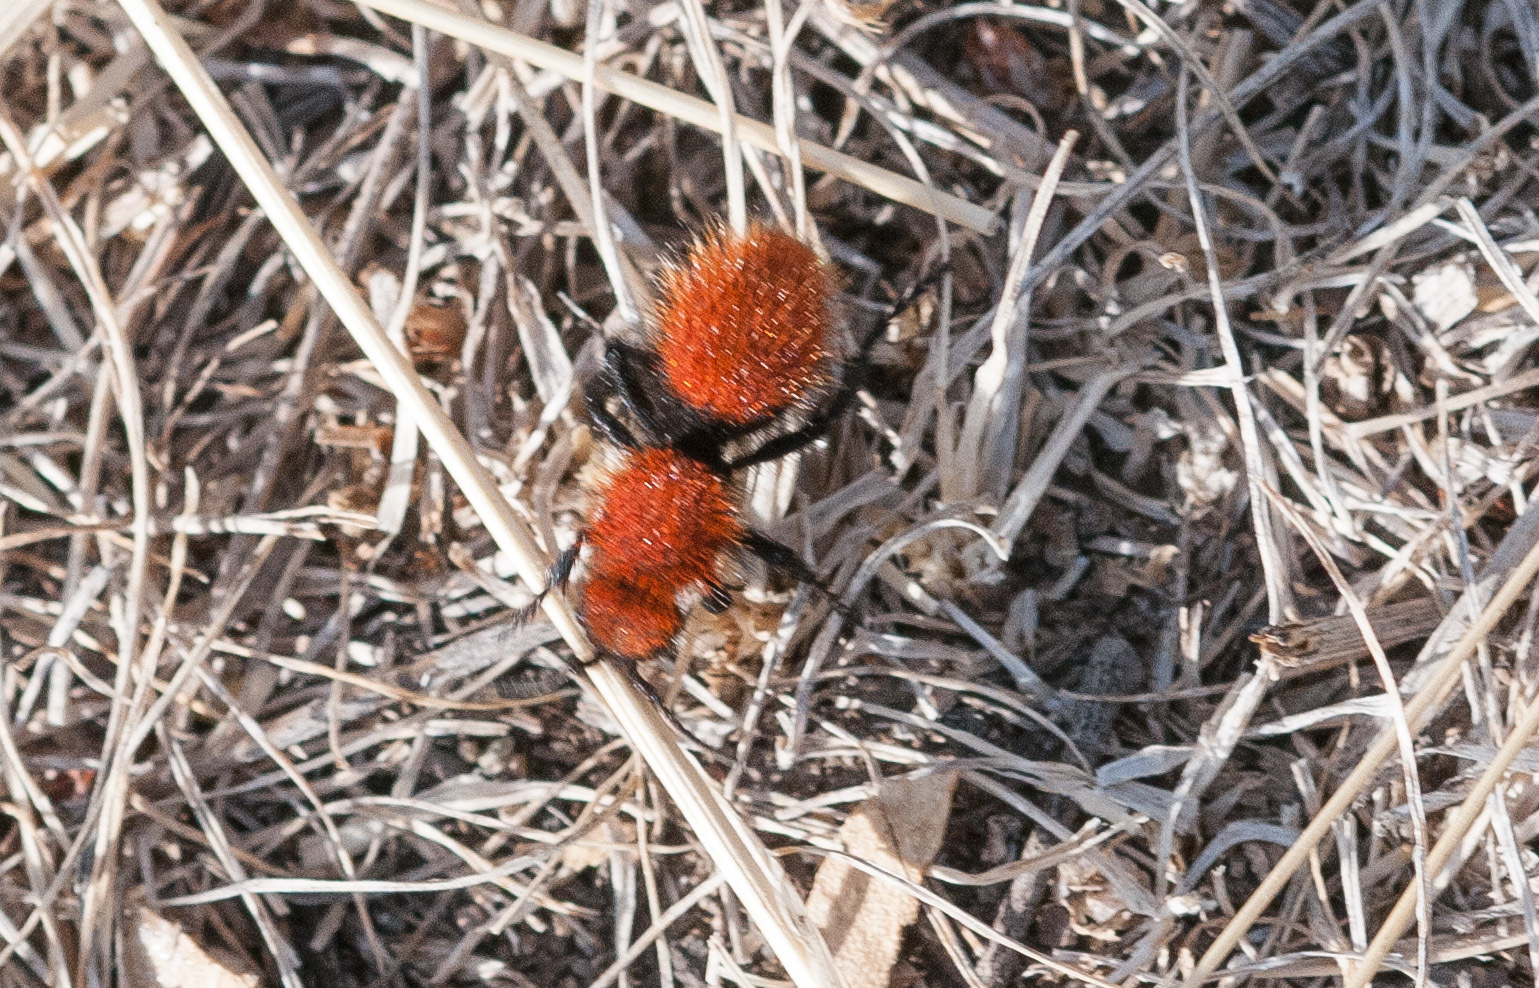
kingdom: Animalia
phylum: Arthropoda
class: Insecta
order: Hymenoptera
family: Mutillidae
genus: Dasymutilla
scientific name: Dasymutilla vestita
